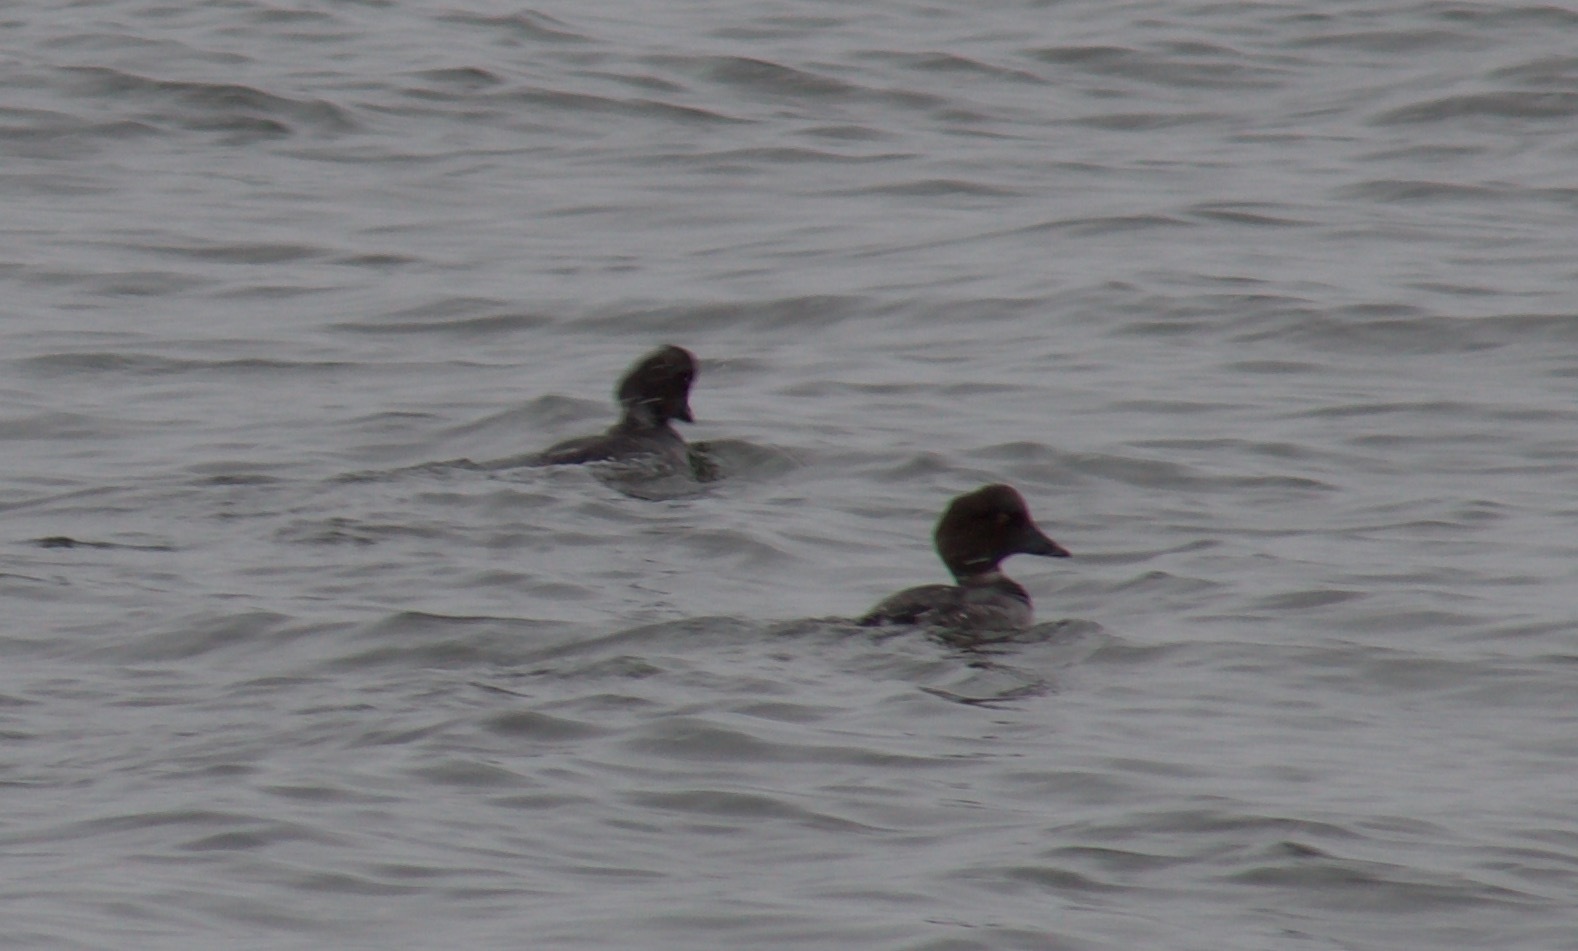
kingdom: Animalia
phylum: Chordata
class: Aves
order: Anseriformes
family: Anatidae
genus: Bucephala
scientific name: Bucephala clangula
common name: Common goldeneye
